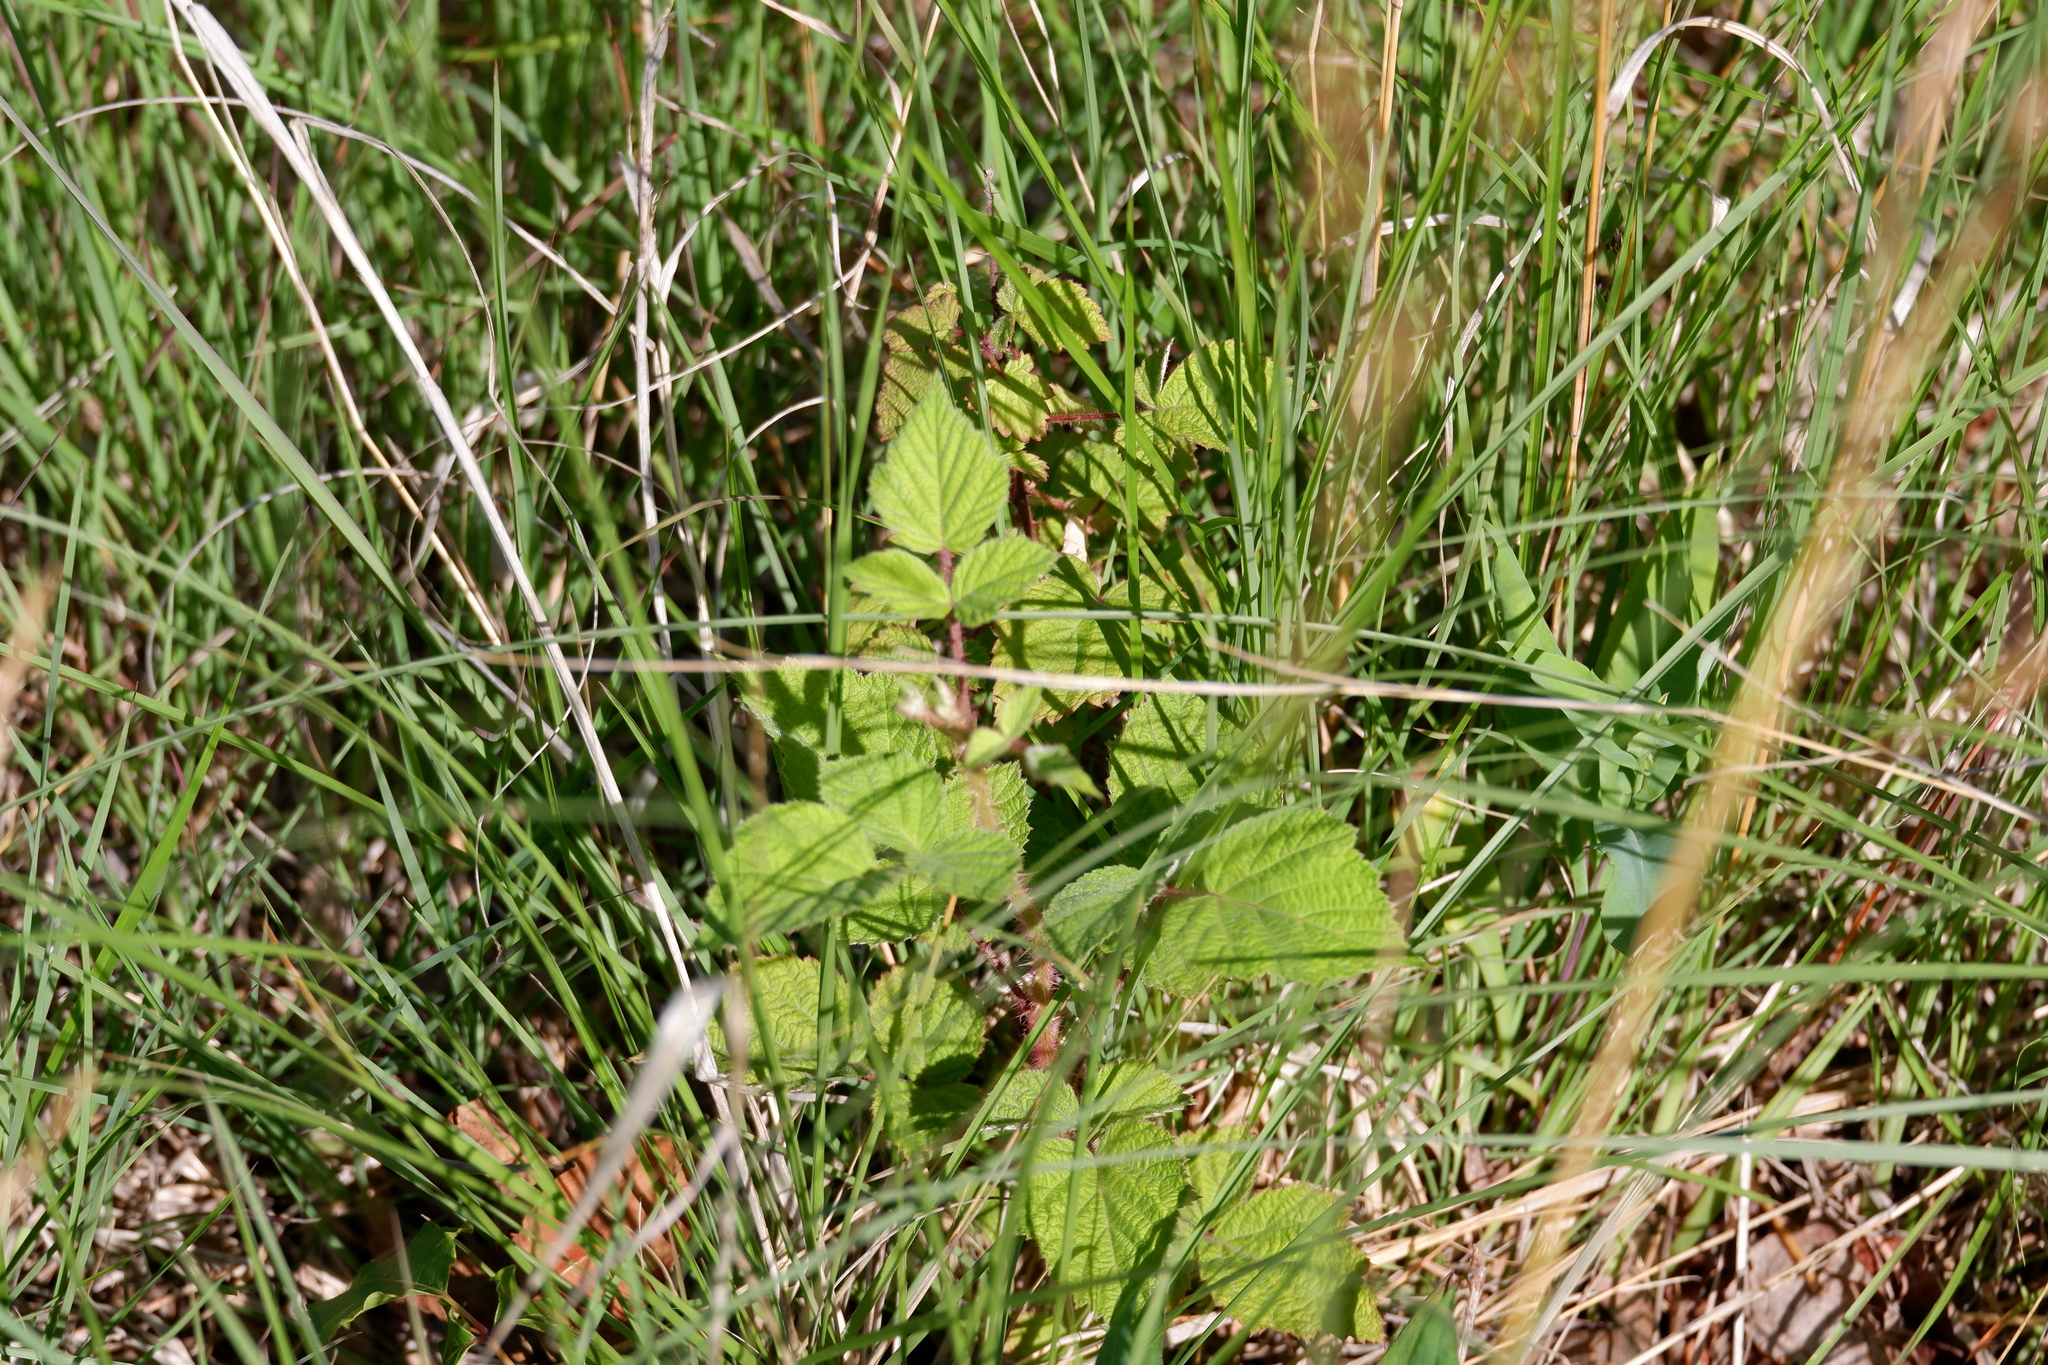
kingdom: Plantae
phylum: Tracheophyta
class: Magnoliopsida
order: Rosales
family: Rosaceae
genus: Rubus
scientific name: Rubus phoenicolasius
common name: Japanese wineberry
